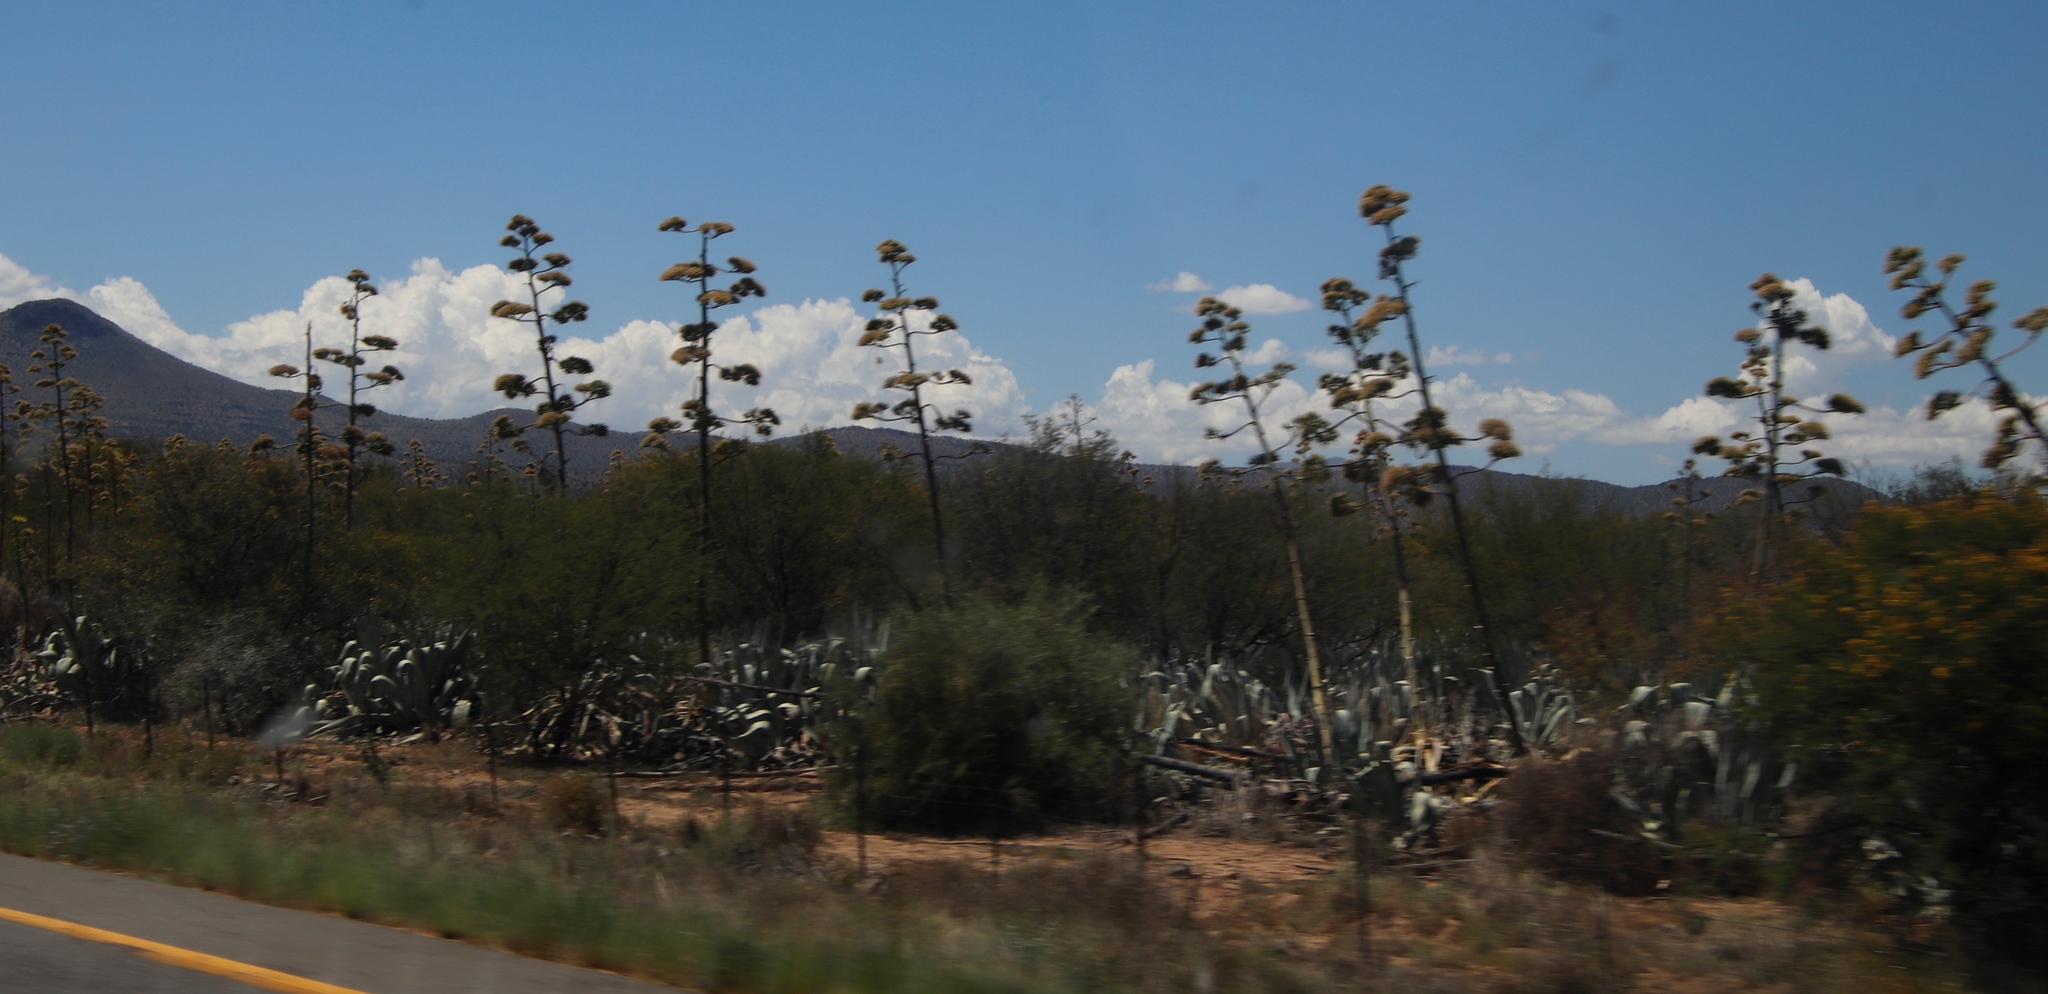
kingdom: Plantae
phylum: Tracheophyta
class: Liliopsida
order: Asparagales
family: Asparagaceae
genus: Agave
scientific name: Agave americana
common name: Centuryplant
